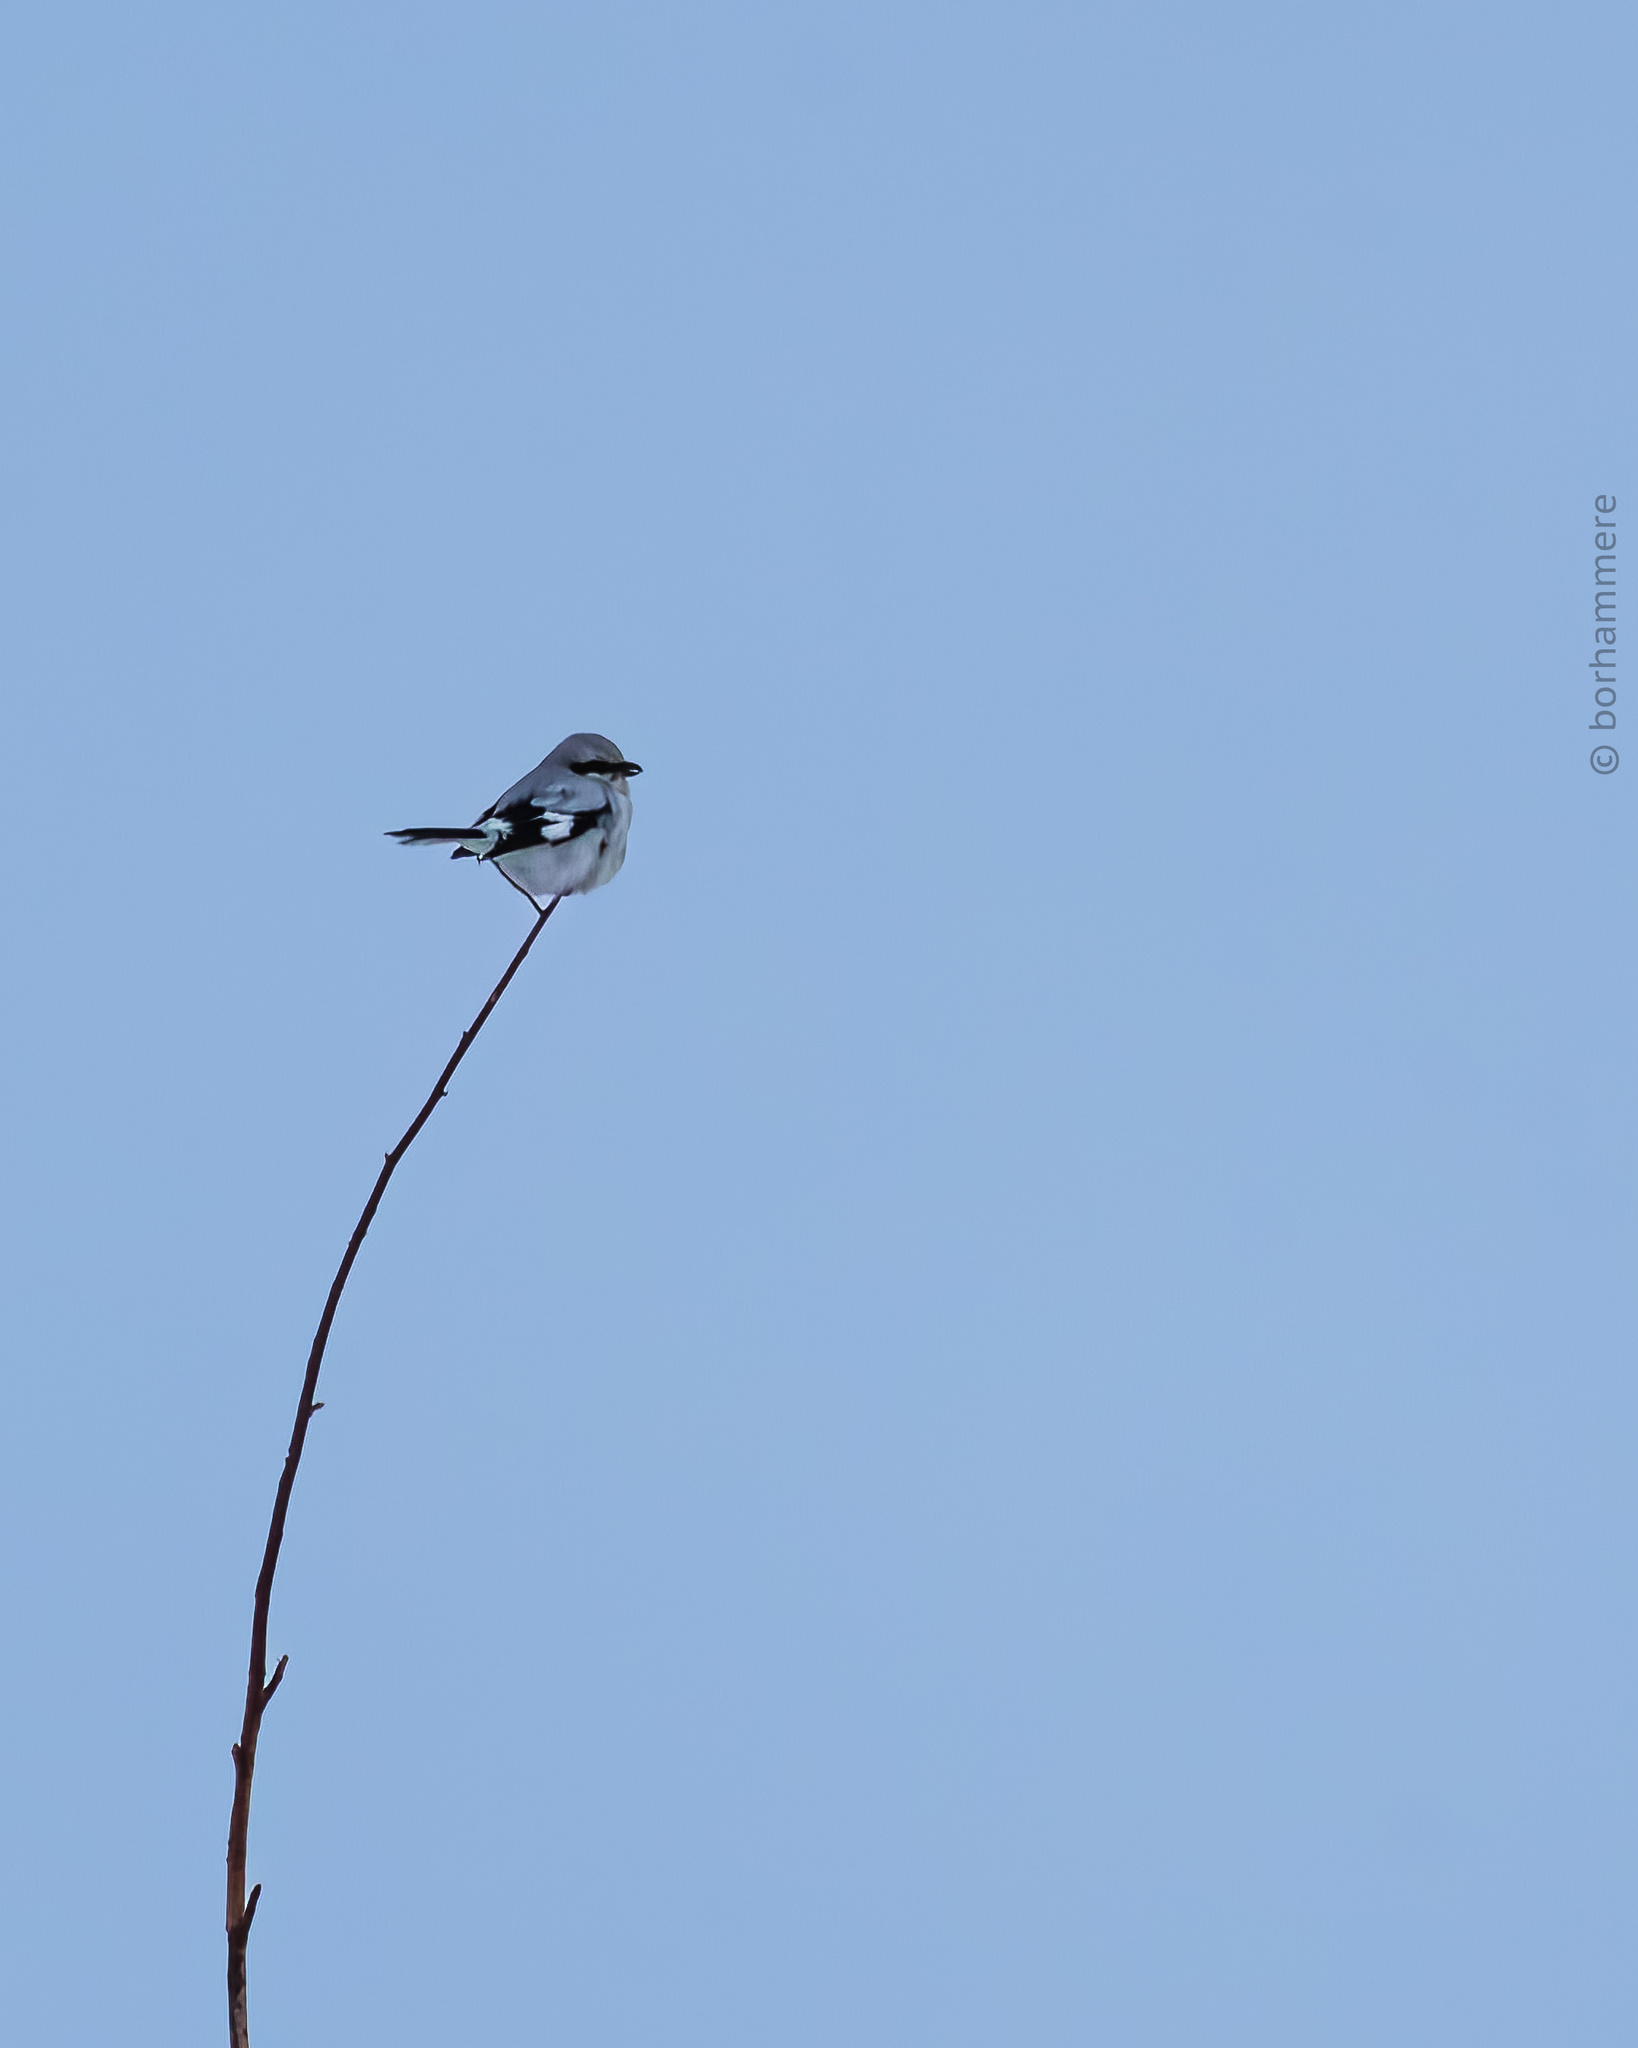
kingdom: Animalia
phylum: Chordata
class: Aves
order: Passeriformes
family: Laniidae
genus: Lanius
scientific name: Lanius excubitor
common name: Great grey shrike
